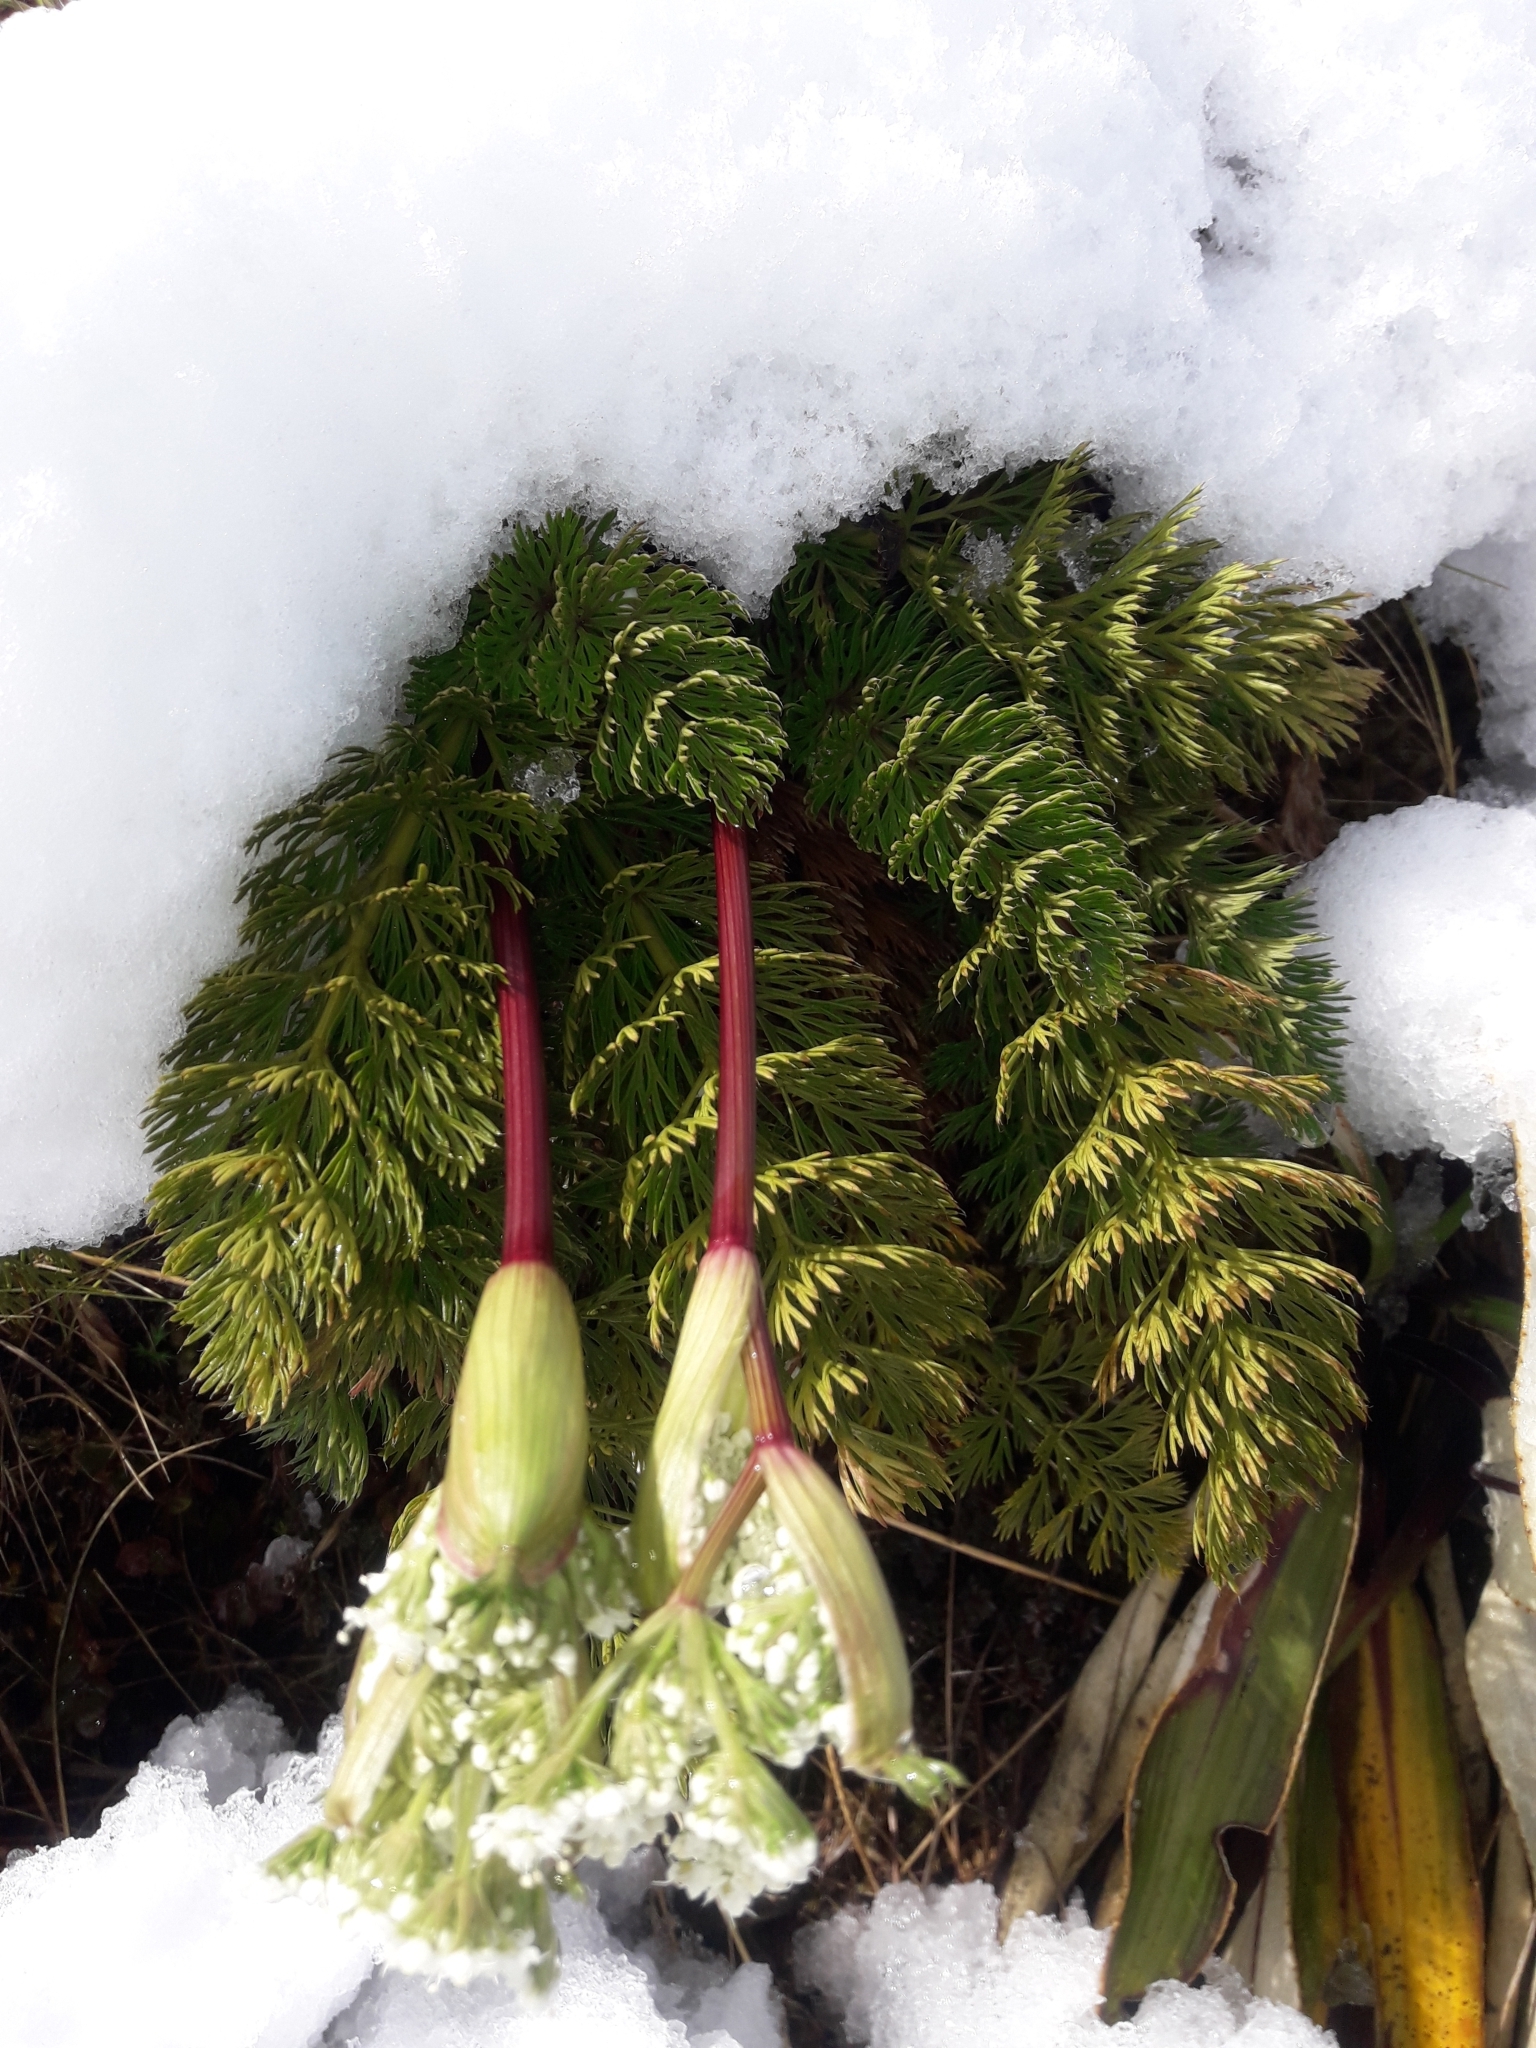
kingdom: Plantae
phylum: Tracheophyta
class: Magnoliopsida
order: Apiales
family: Apiaceae
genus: Anisotome
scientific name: Anisotome haastii
